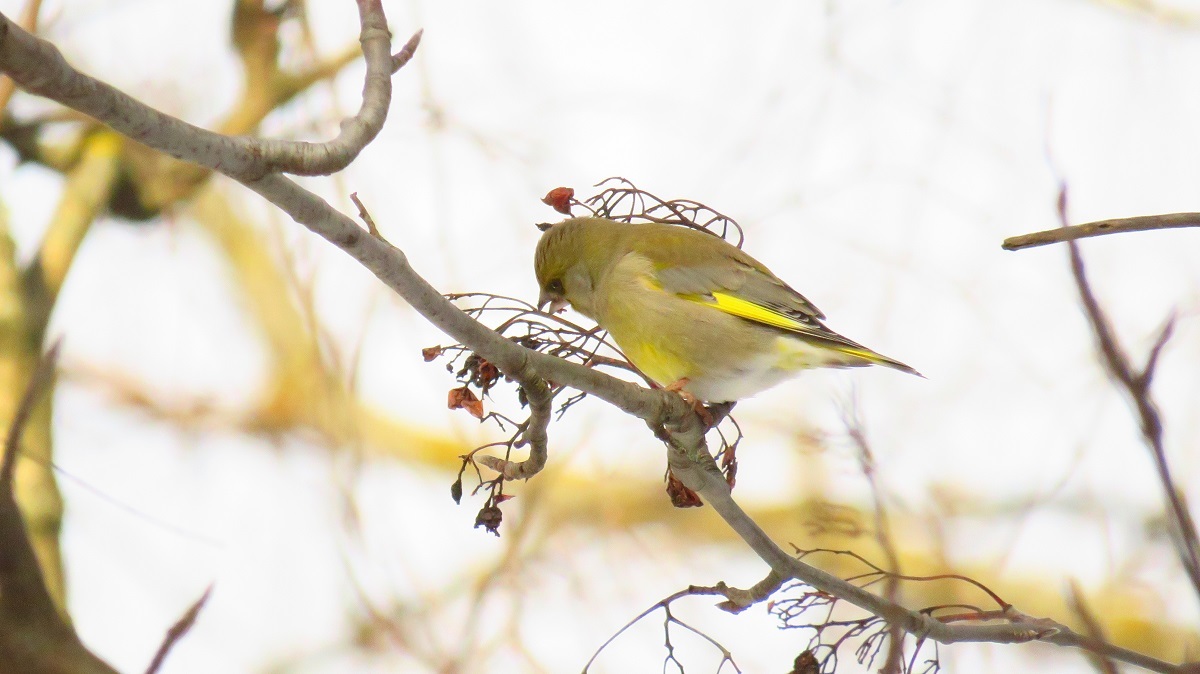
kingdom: Plantae
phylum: Tracheophyta
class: Liliopsida
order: Poales
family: Poaceae
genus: Chloris
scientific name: Chloris chloris
